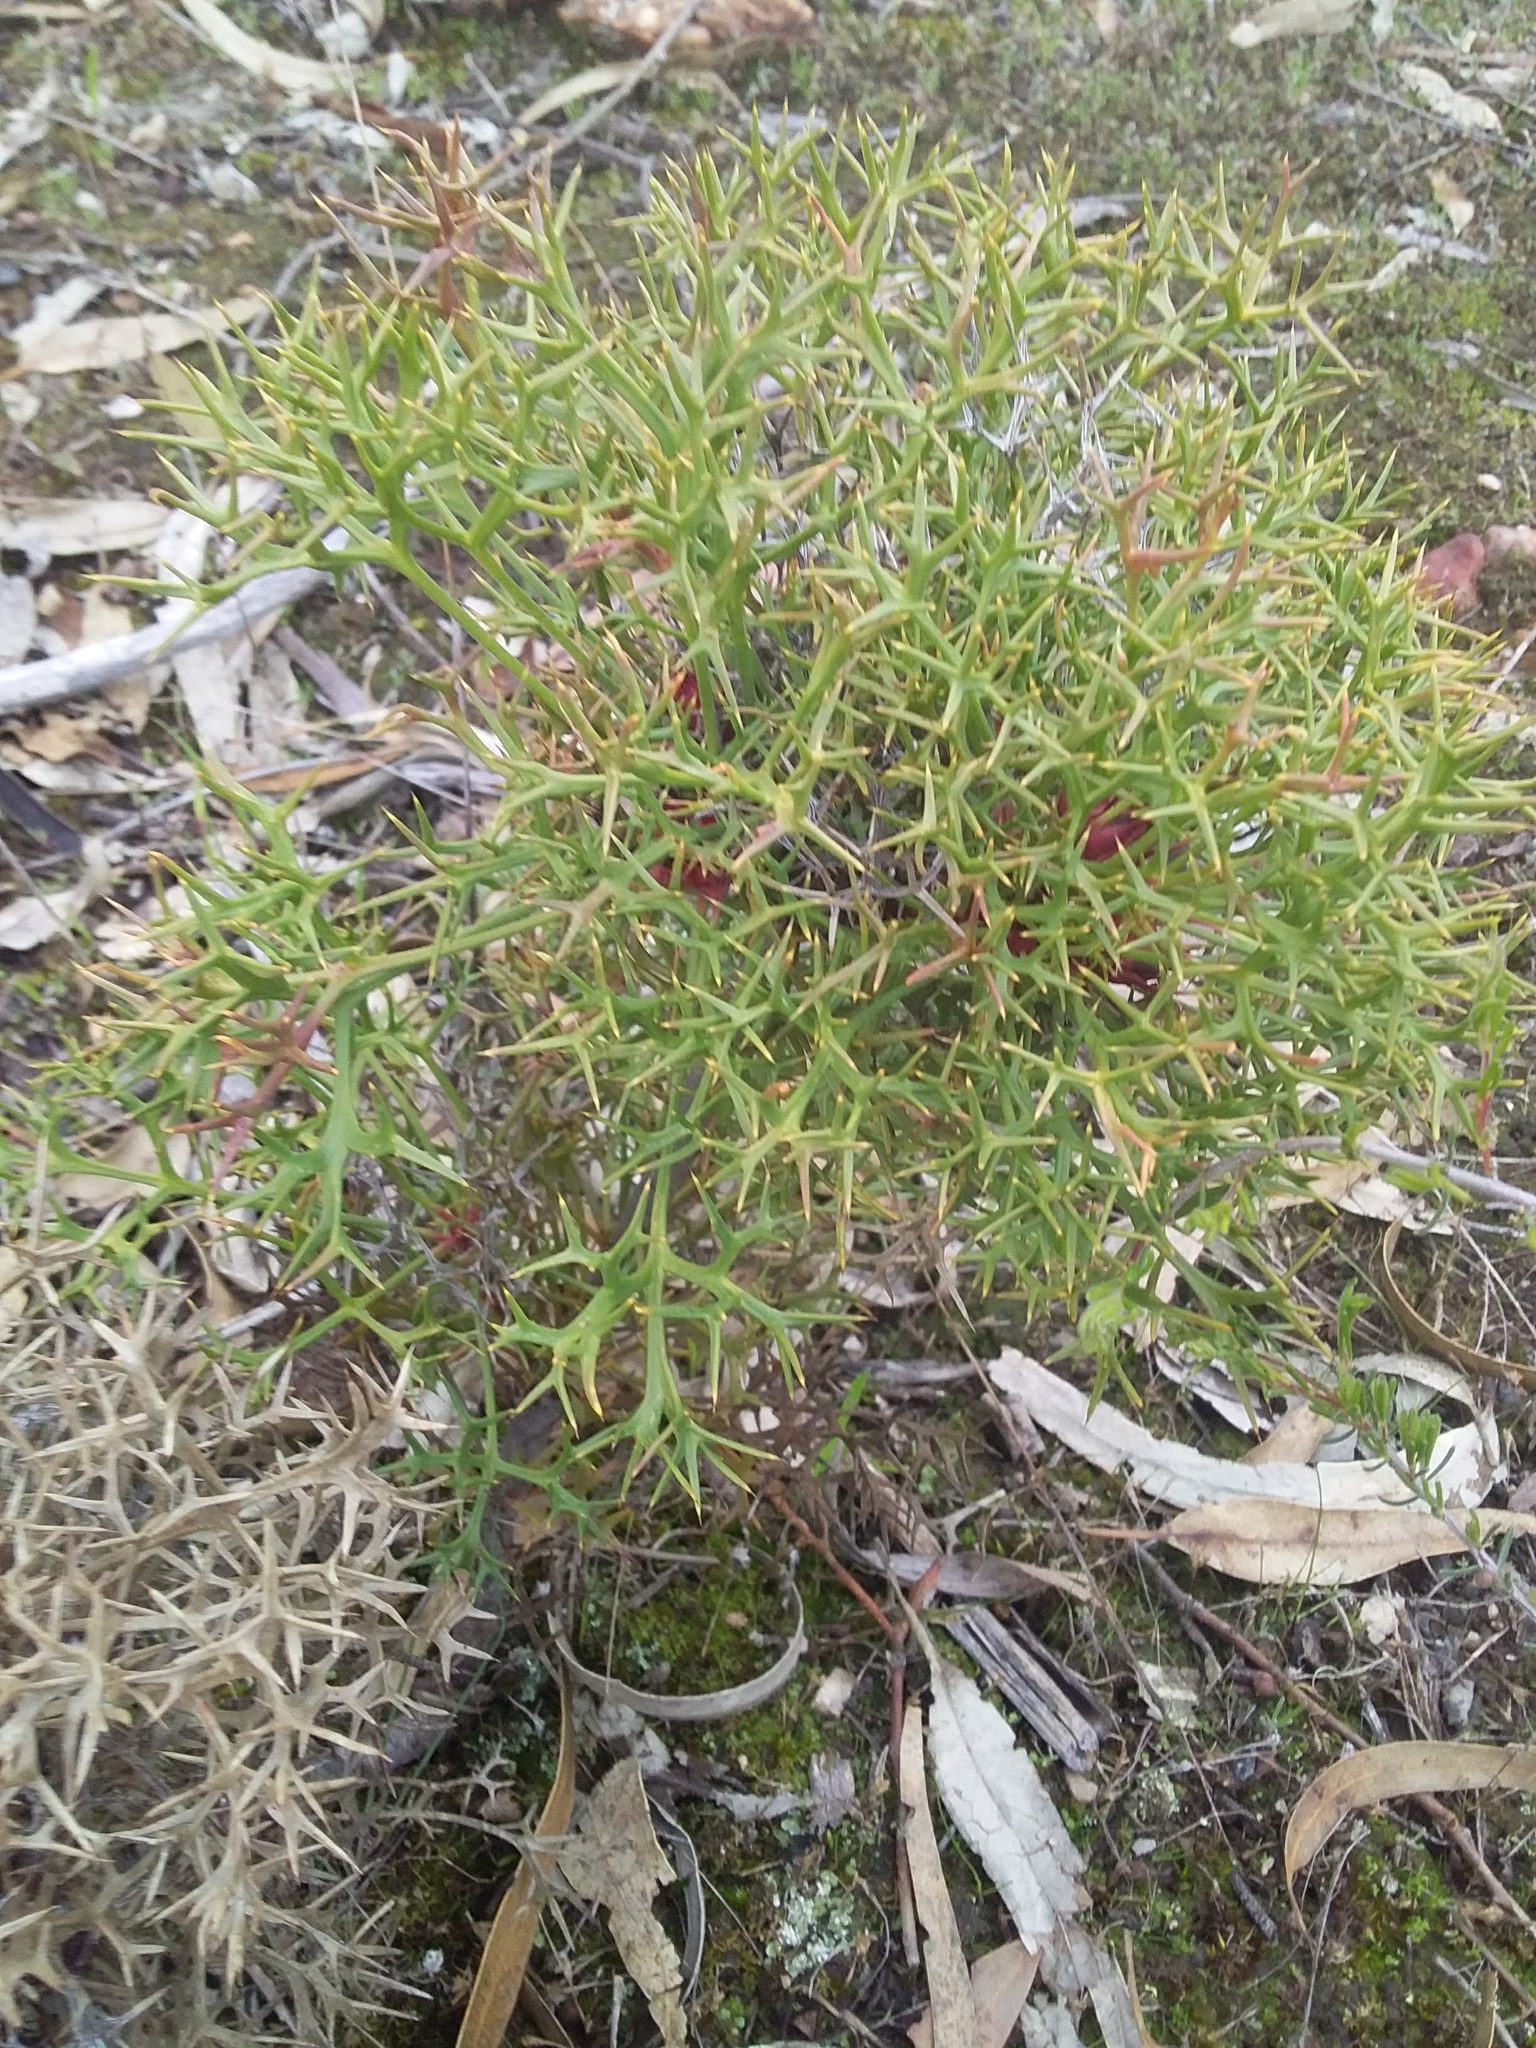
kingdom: Plantae
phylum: Tracheophyta
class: Magnoliopsida
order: Proteales
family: Proteaceae
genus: Isopogon
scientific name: Isopogon ceratophyllus
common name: Horny cone-bush
